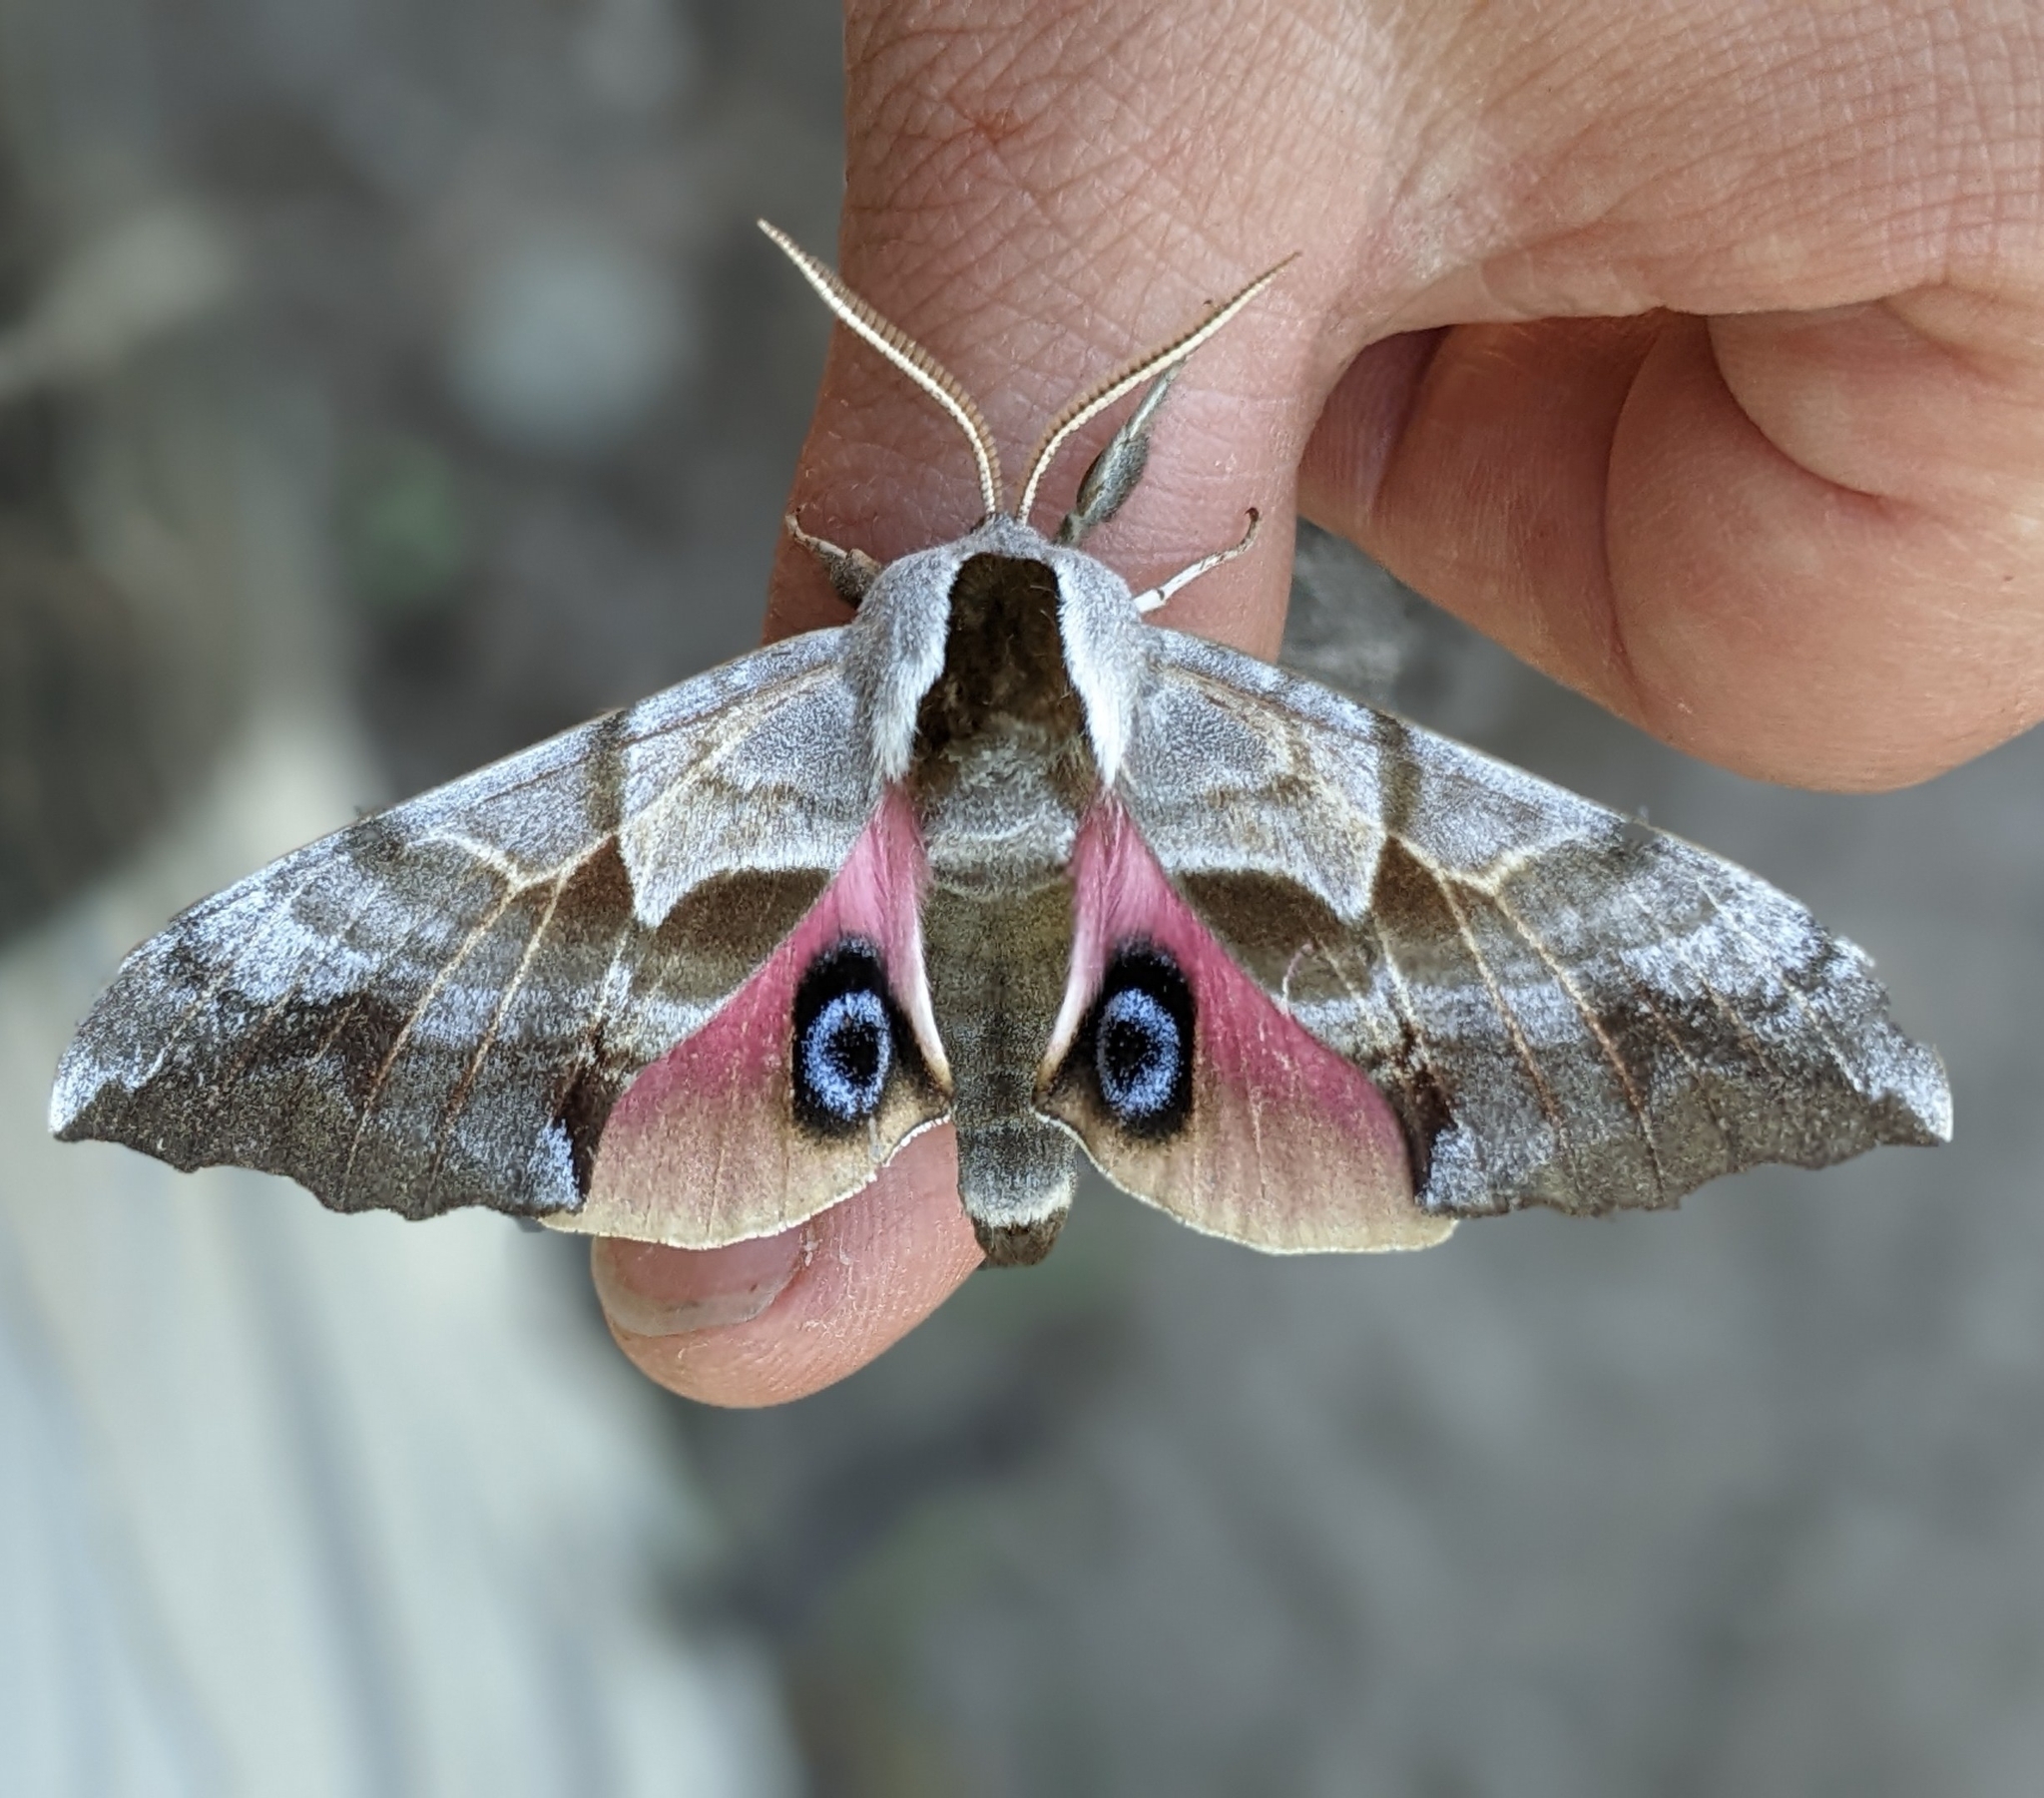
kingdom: Animalia
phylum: Arthropoda
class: Insecta
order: Lepidoptera
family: Sphingidae
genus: Smerinthus
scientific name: Smerinthus cerisyi
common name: Cerisy's sphinx moth
